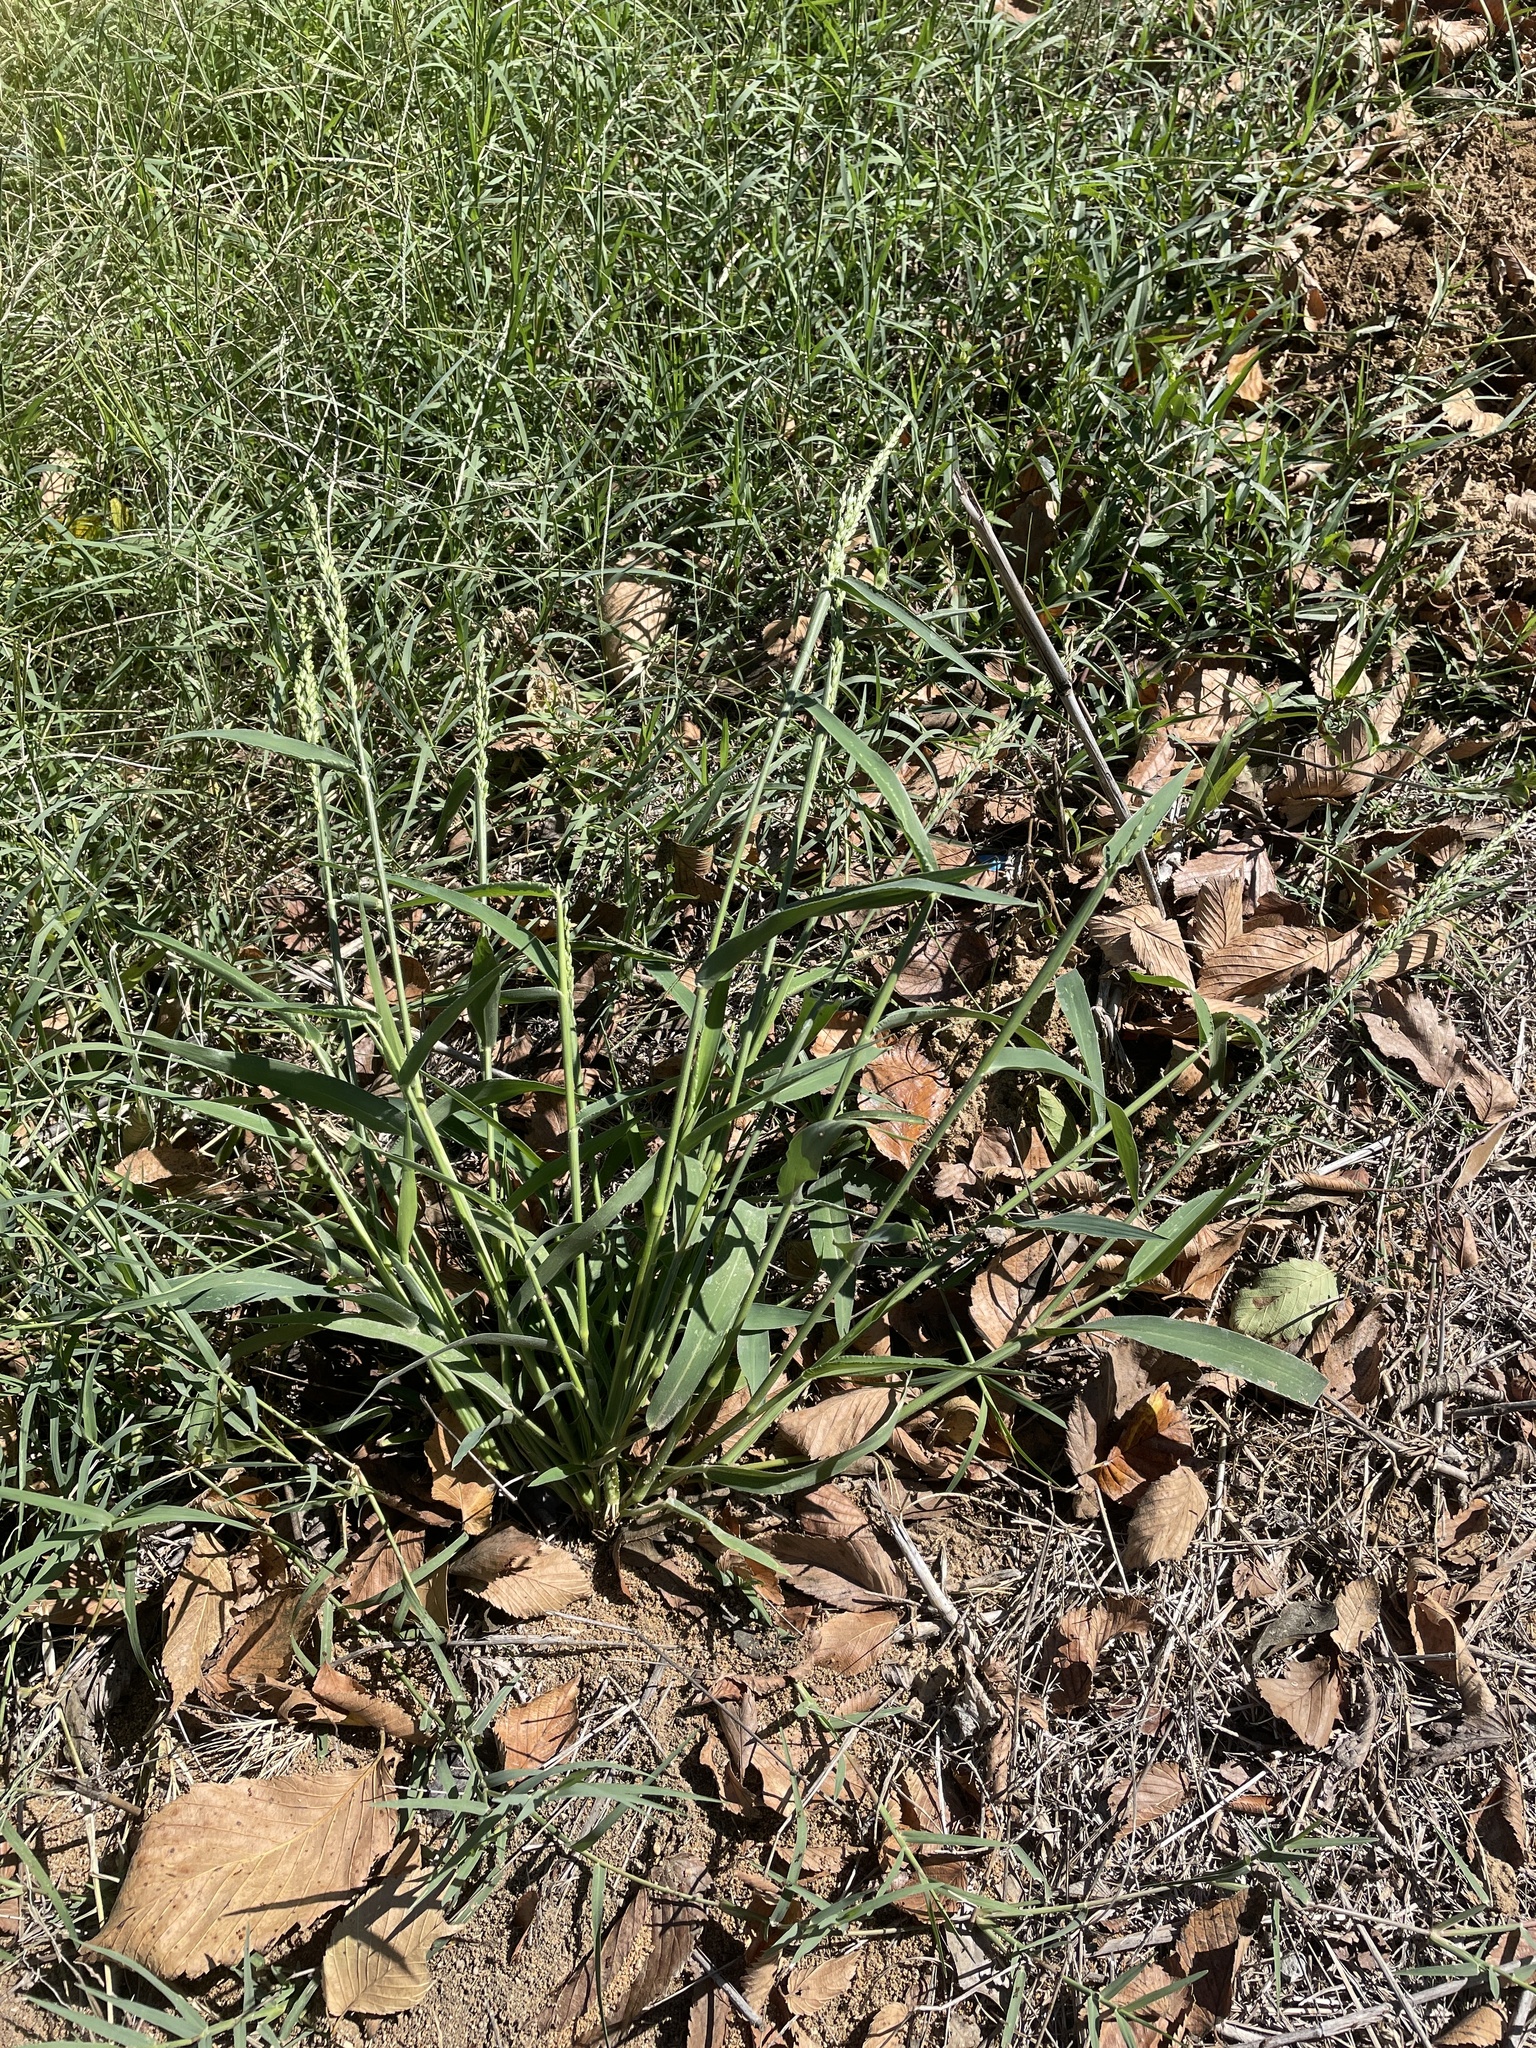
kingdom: Plantae
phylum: Tracheophyta
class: Liliopsida
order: Poales
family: Poaceae
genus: Urochloa
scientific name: Urochloa texana
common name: Texas millet
